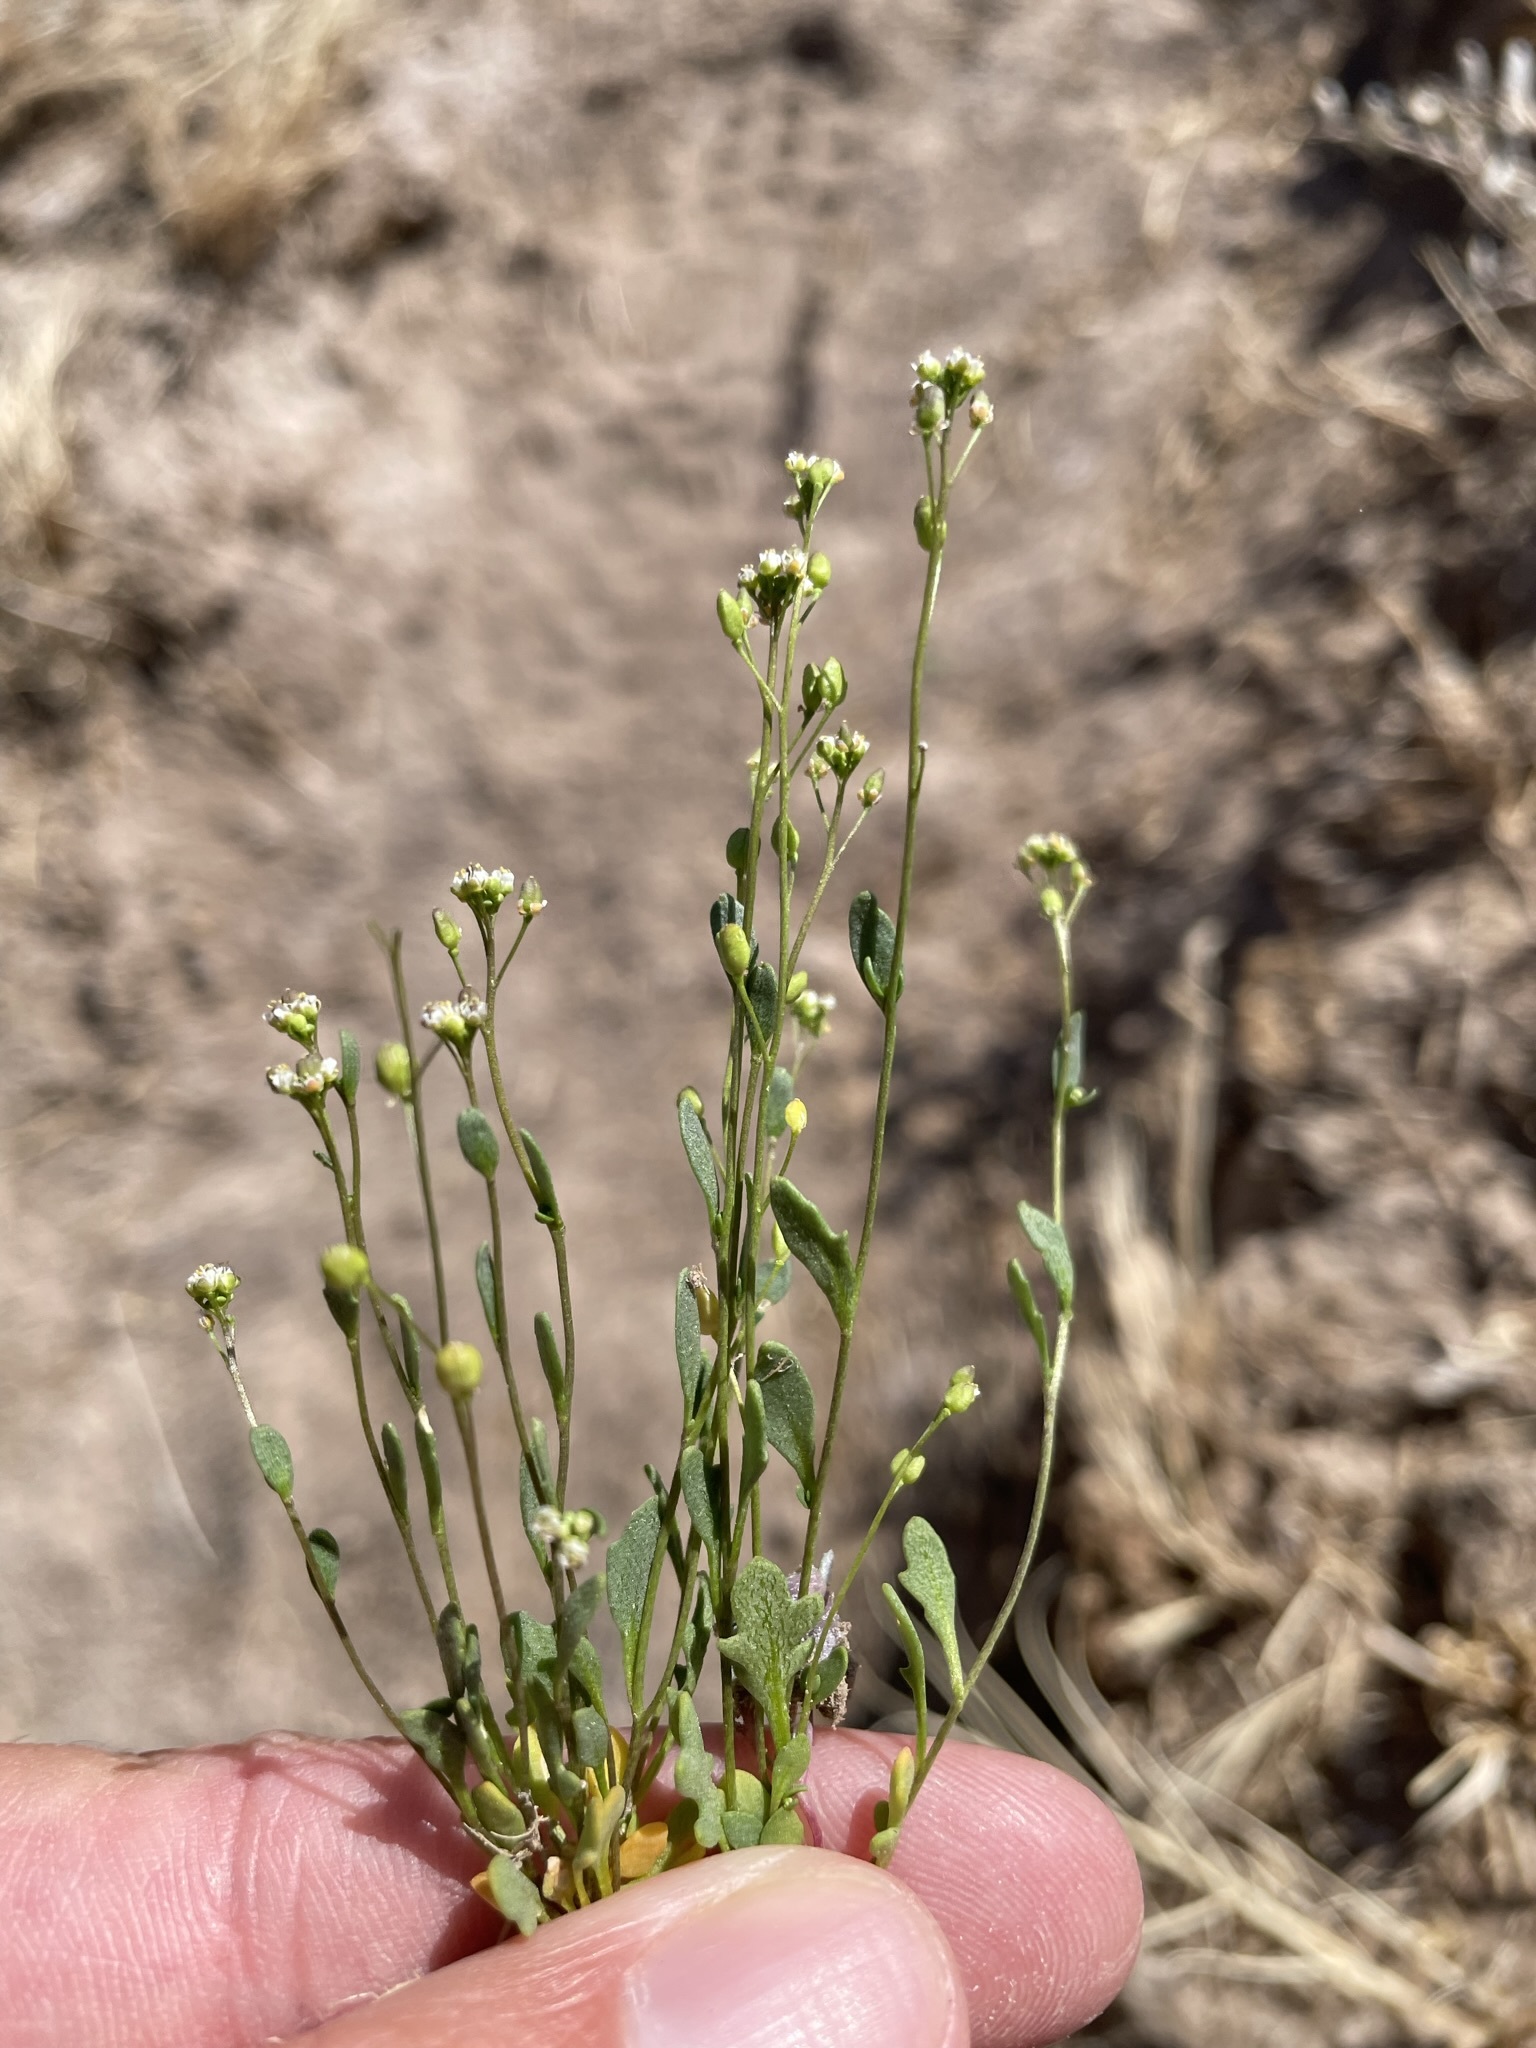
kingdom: Plantae
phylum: Tracheophyta
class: Magnoliopsida
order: Brassicales
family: Brassicaceae
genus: Hornungia
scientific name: Hornungia procumbens
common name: Oval purse
